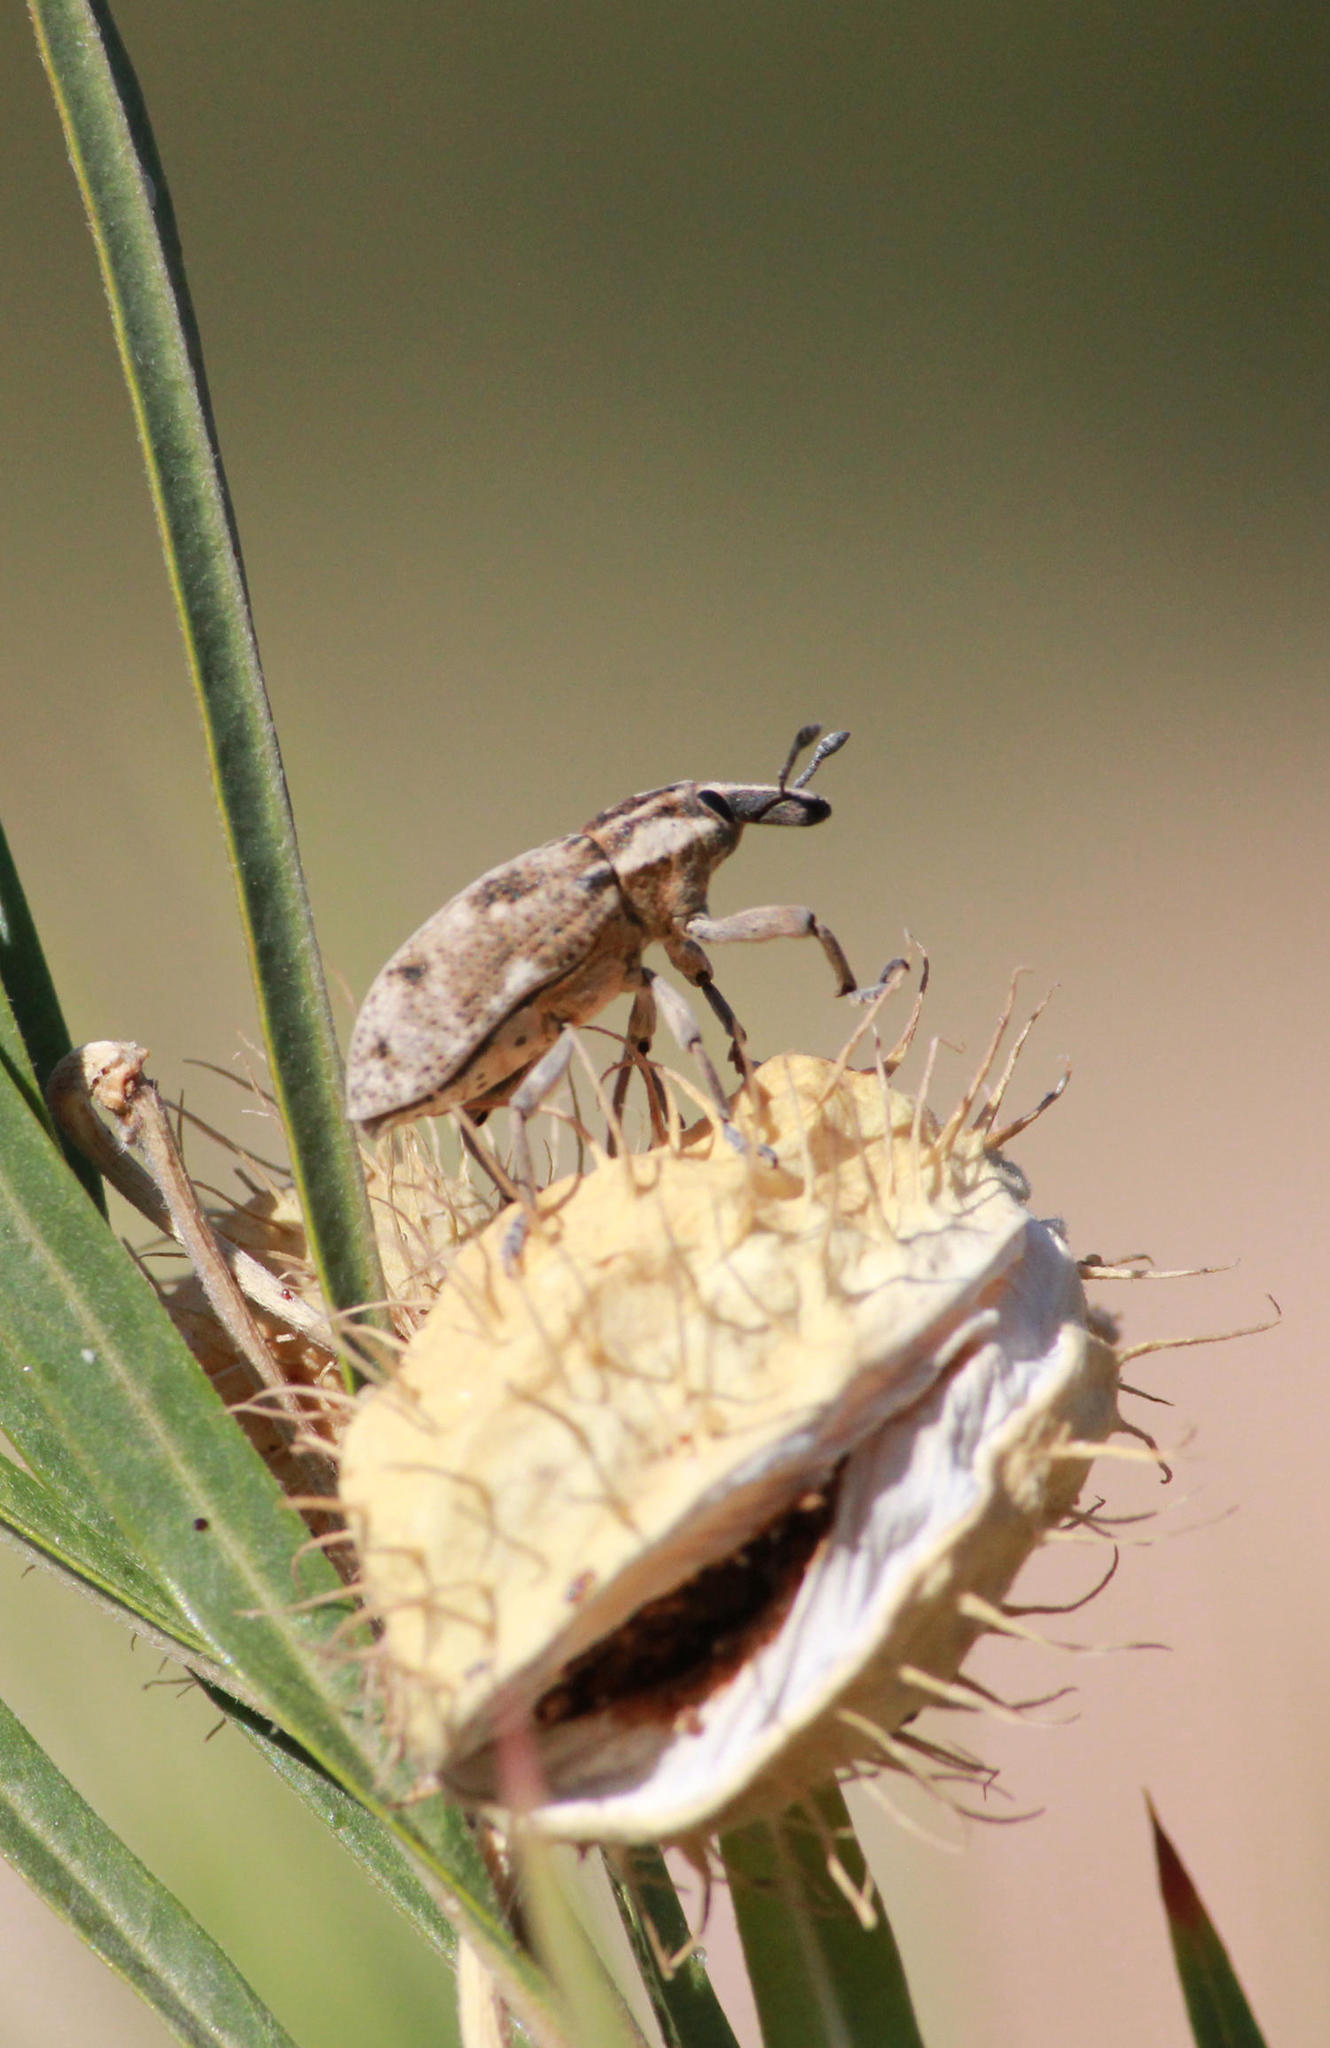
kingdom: Animalia
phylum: Arthropoda
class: Insecta
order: Coleoptera
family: Curculionidae
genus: Xanthochelus
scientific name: Xanthochelus tropicus
